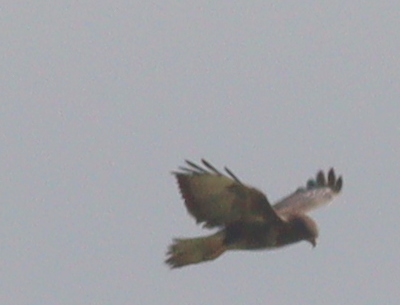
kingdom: Animalia
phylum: Chordata
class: Aves
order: Accipitriformes
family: Accipitridae
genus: Buteo
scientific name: Buteo buteo
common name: Common buzzard
